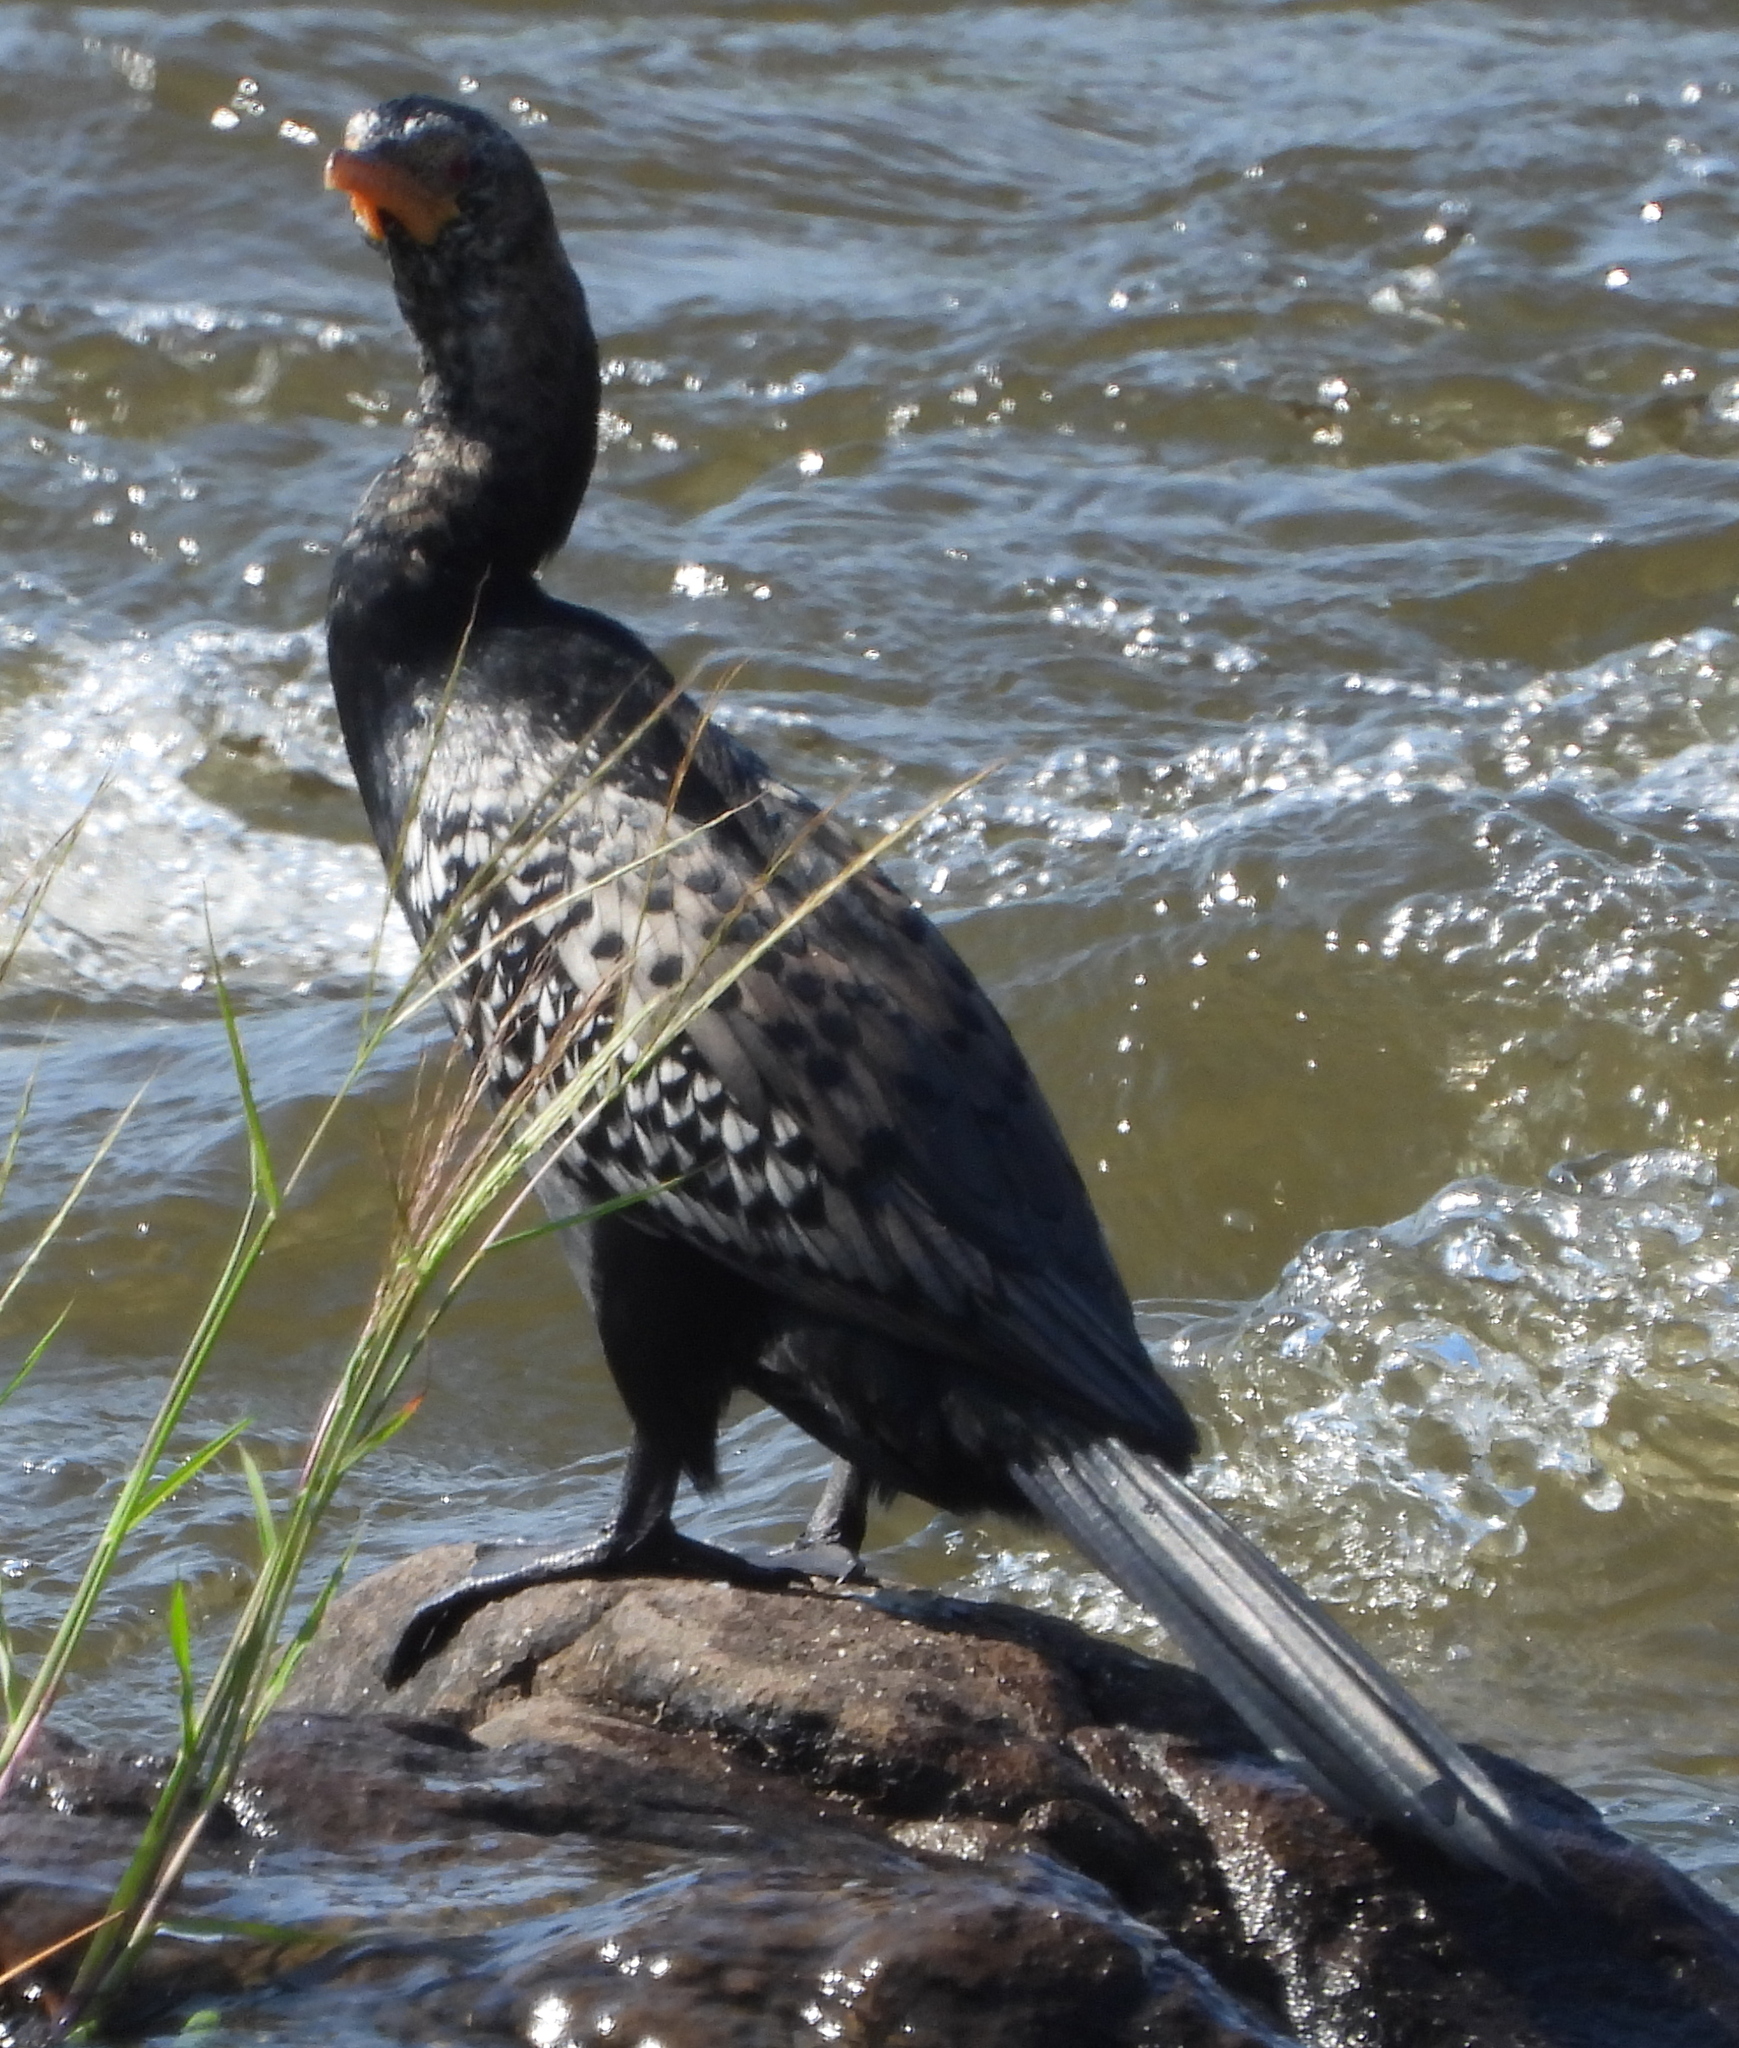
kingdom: Animalia
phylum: Chordata
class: Aves
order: Suliformes
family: Phalacrocoracidae
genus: Microcarbo
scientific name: Microcarbo africanus
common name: Long-tailed cormorant
